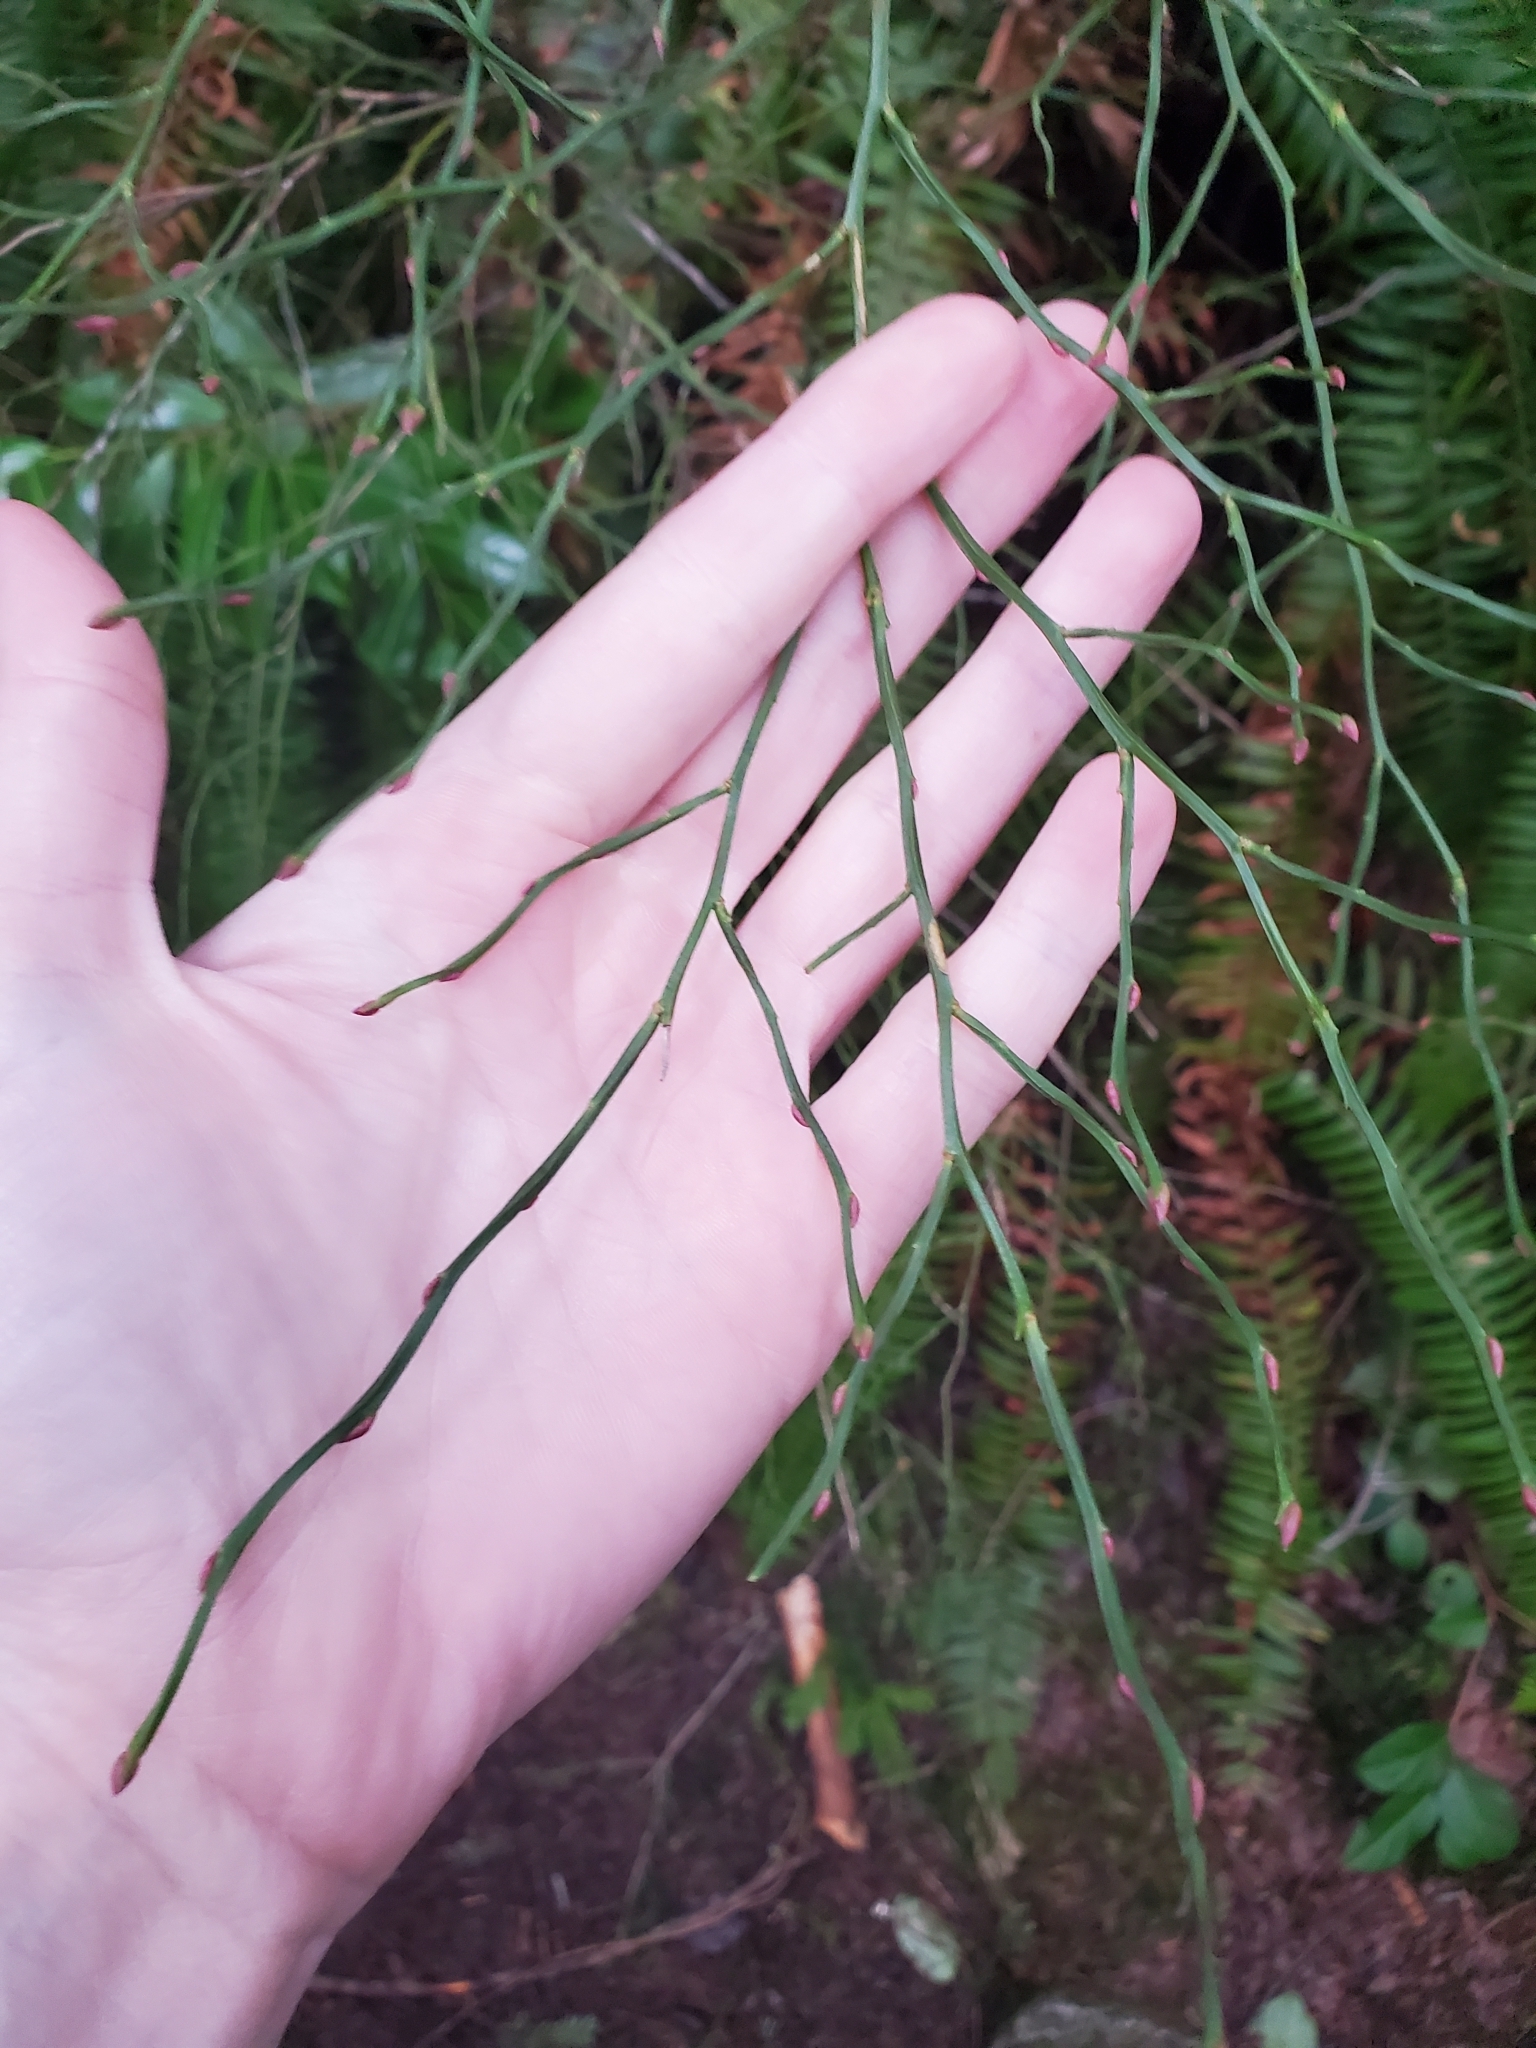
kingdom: Plantae
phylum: Tracheophyta
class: Magnoliopsida
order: Ericales
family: Ericaceae
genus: Vaccinium
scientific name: Vaccinium parvifolium
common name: Red-huckleberry
